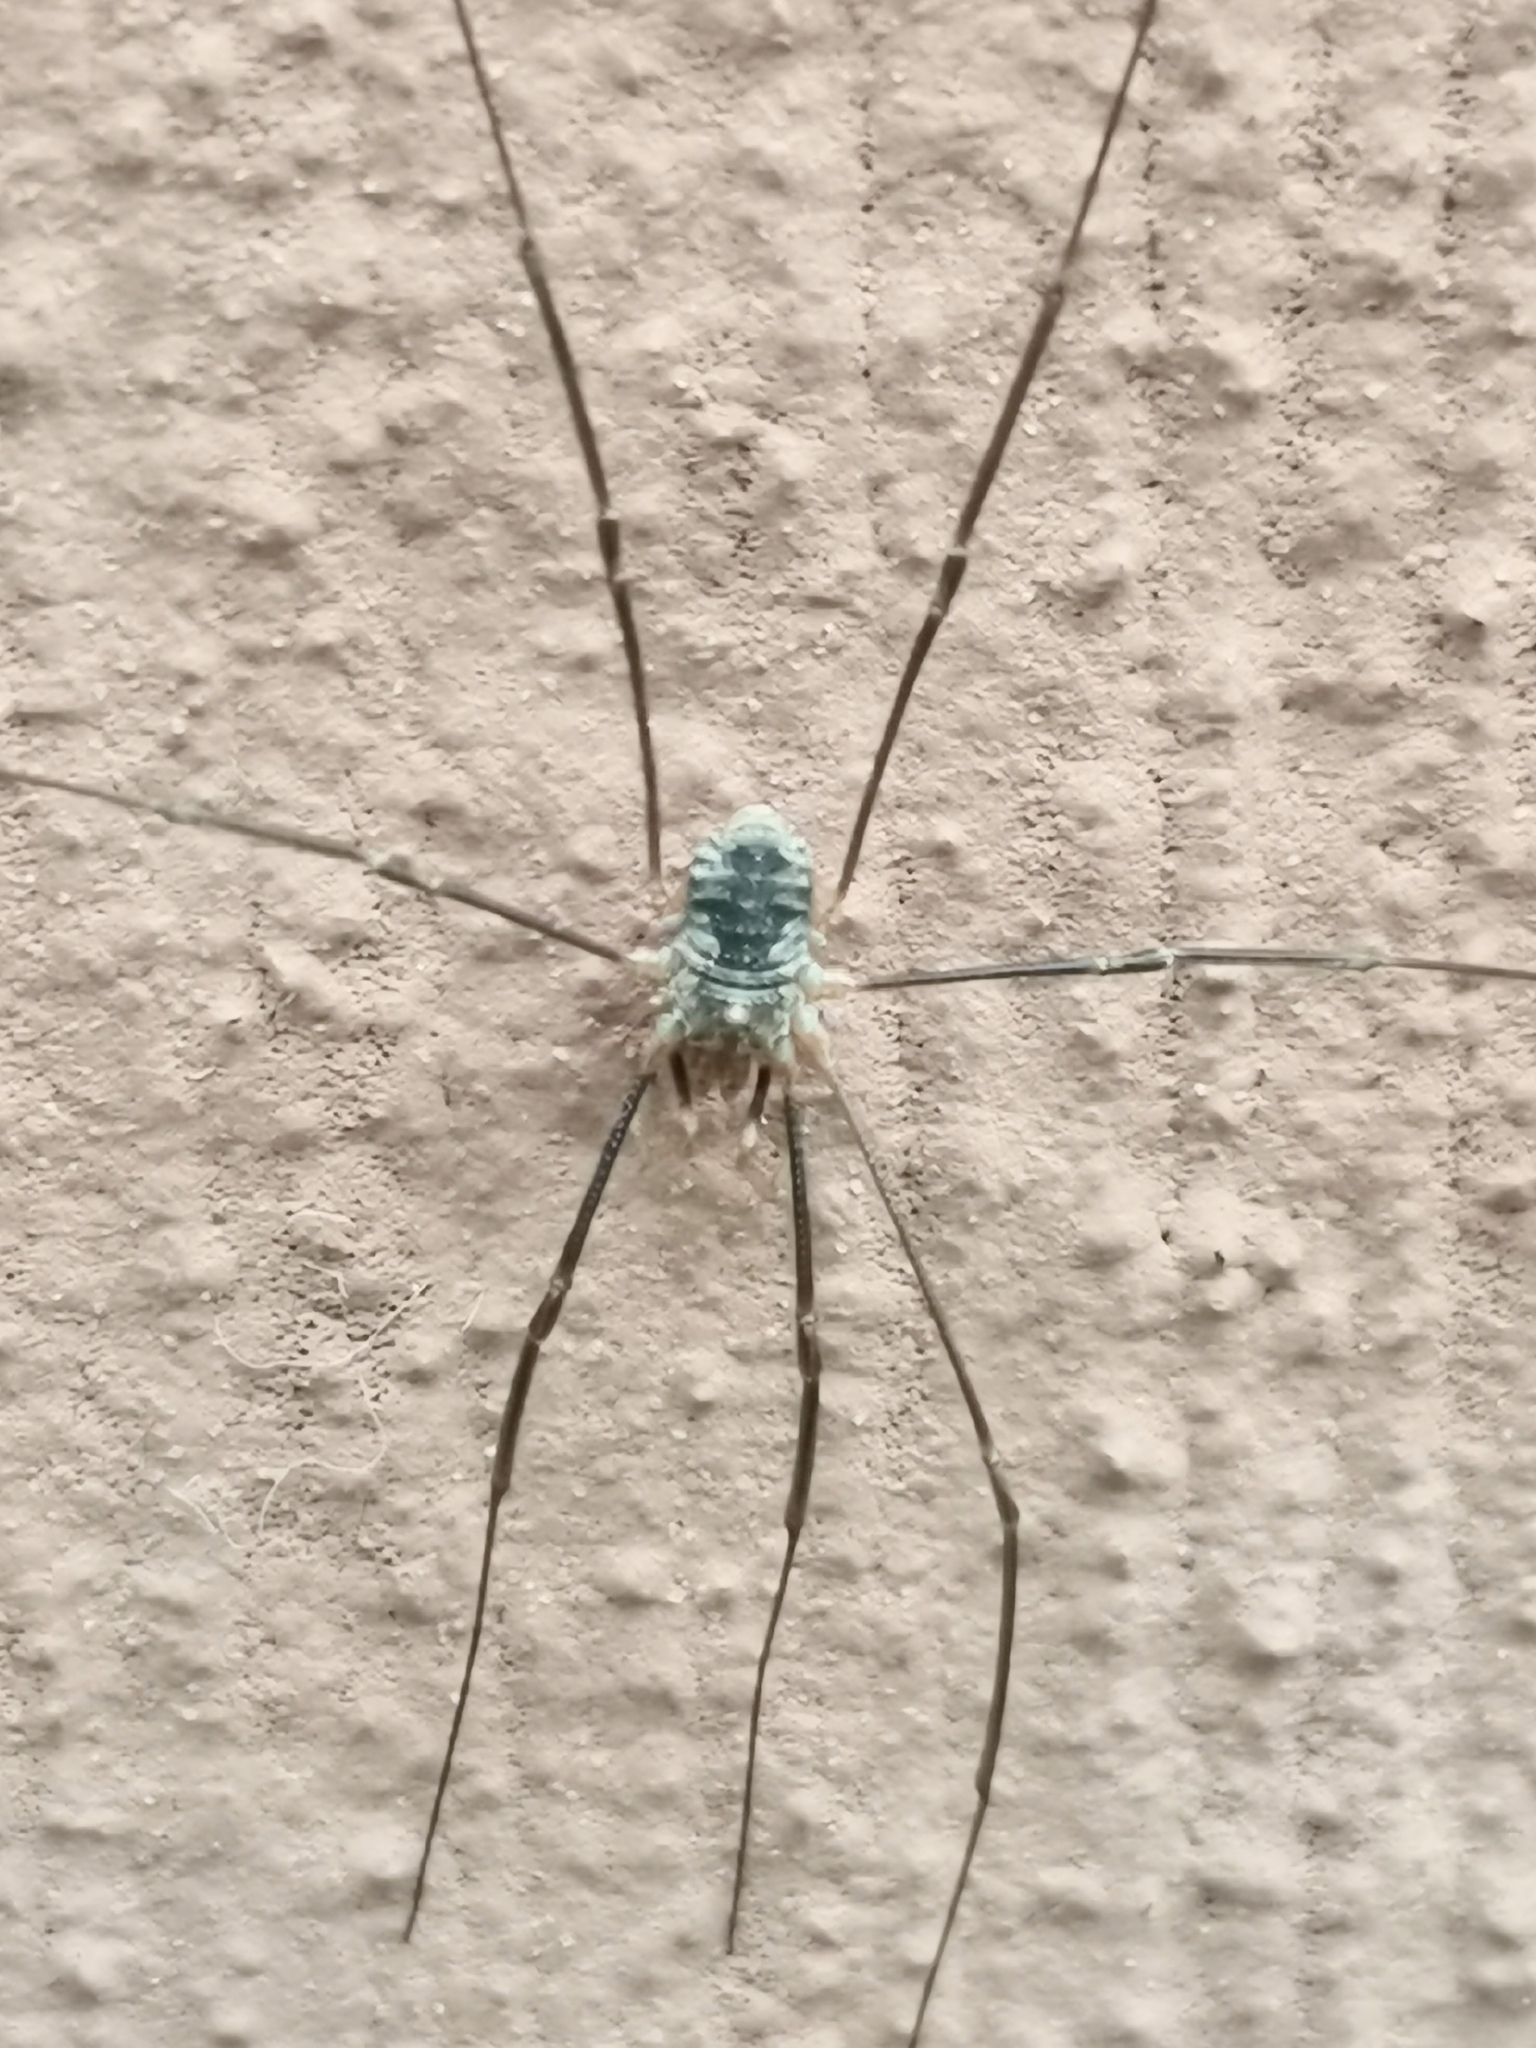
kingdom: Animalia
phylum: Arthropoda
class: Arachnida
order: Opiliones
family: Phalangiidae
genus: Phalangium
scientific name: Phalangium opilio
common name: Daddy longleg
